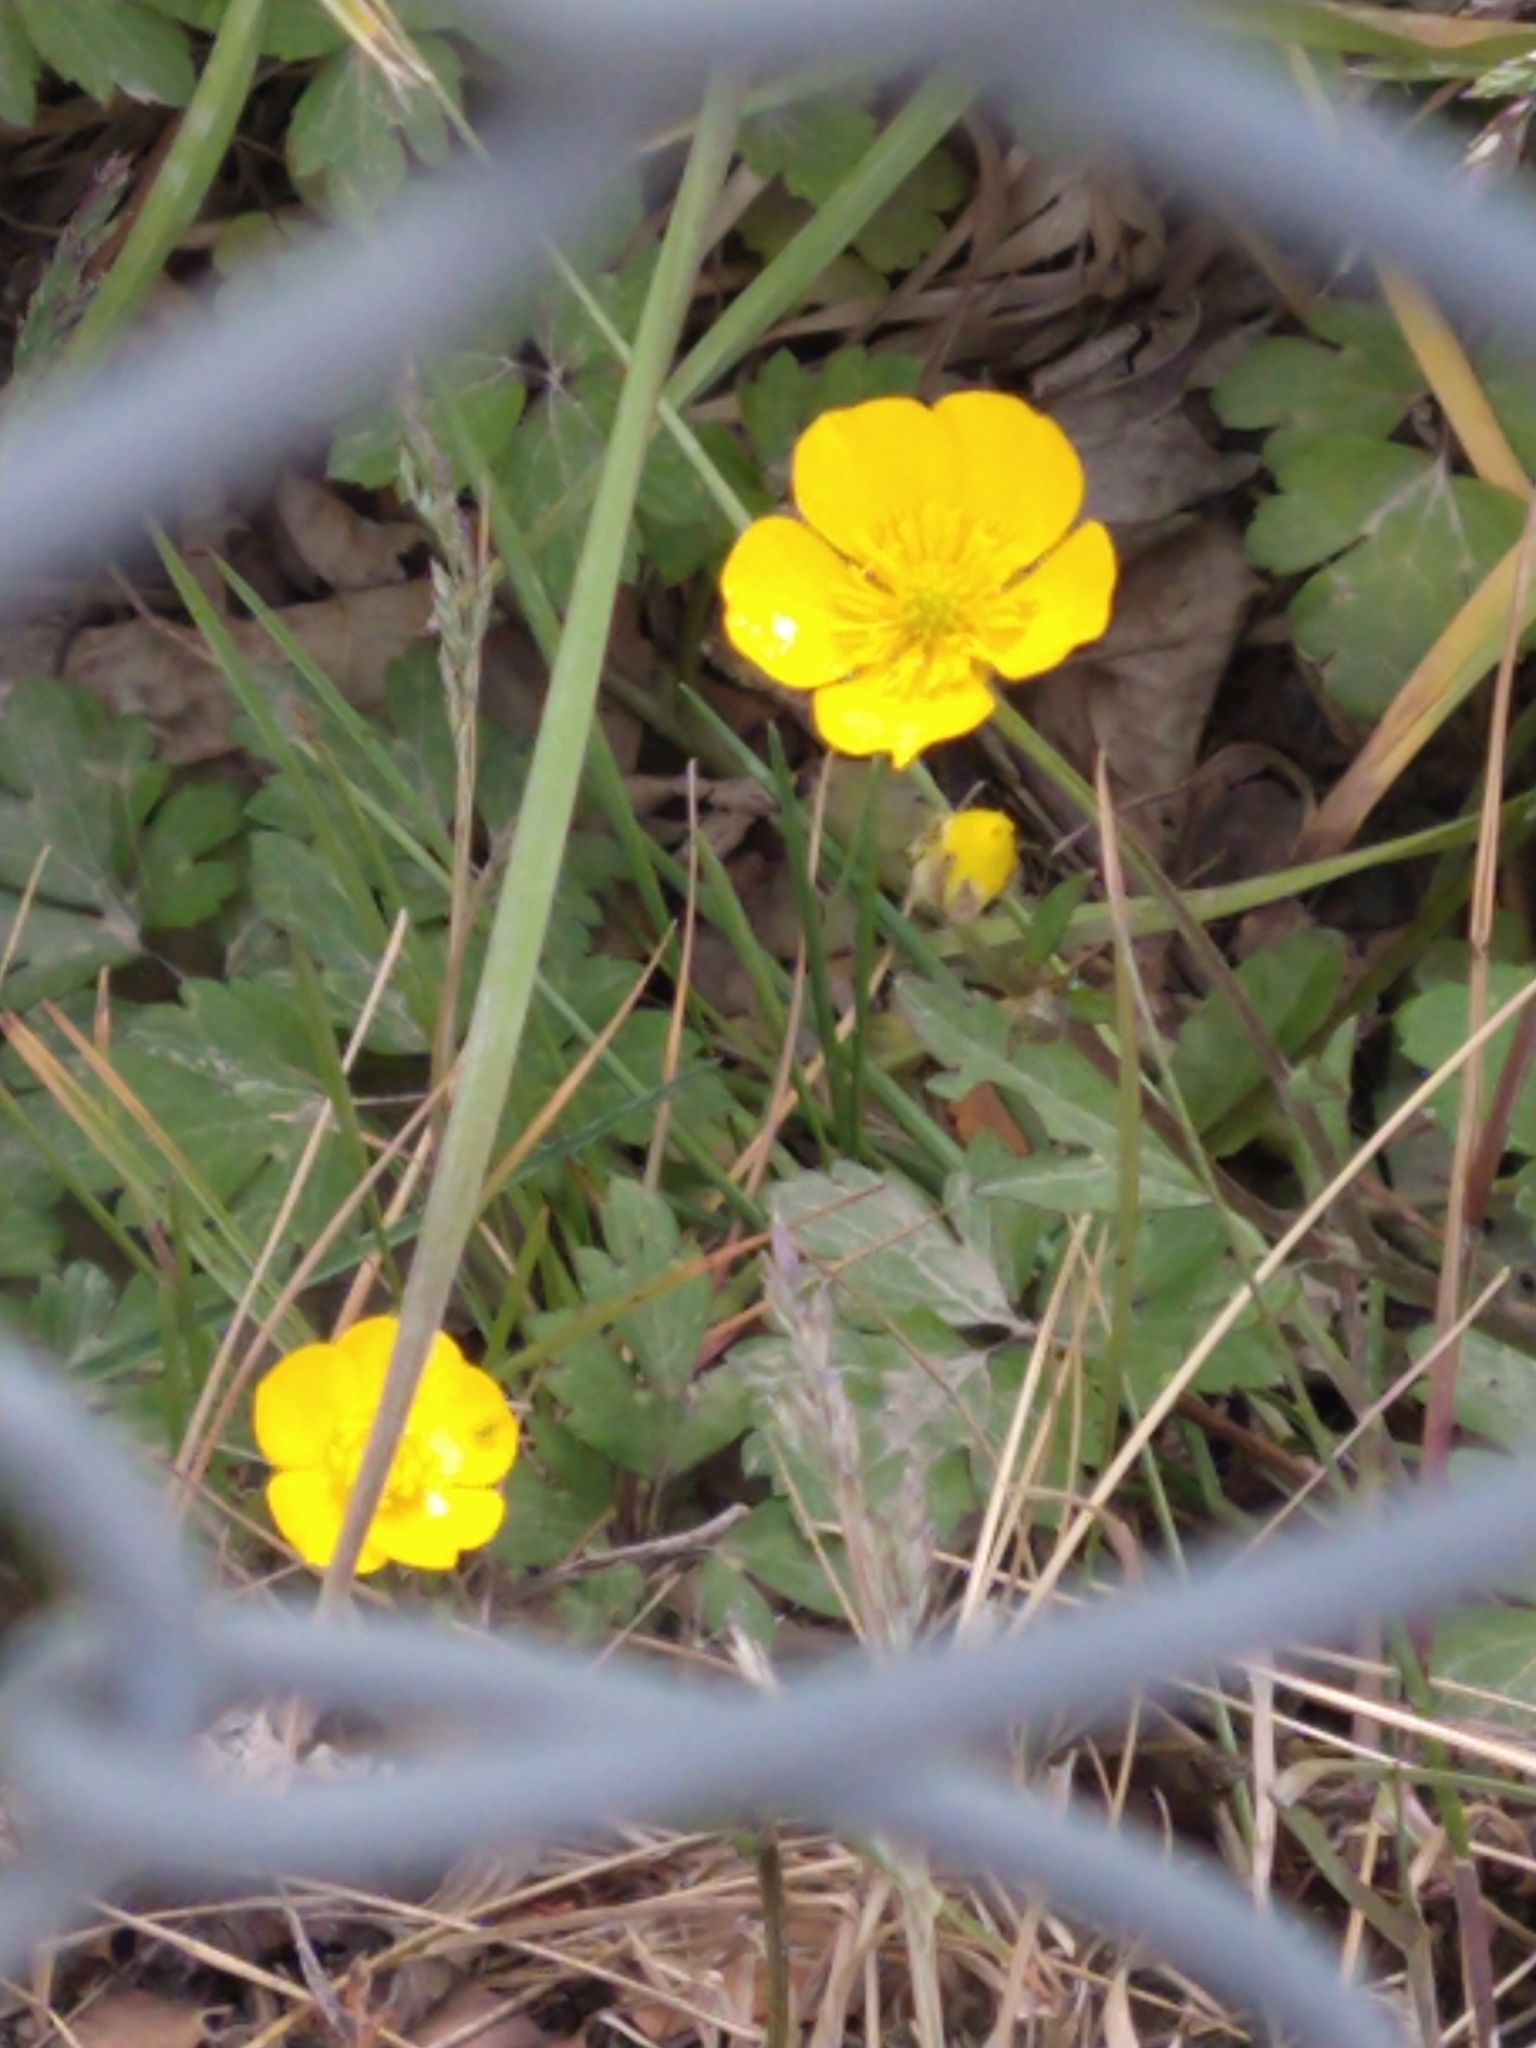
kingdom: Plantae
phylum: Tracheophyta
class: Magnoliopsida
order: Ranunculales
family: Ranunculaceae
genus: Ranunculus
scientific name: Ranunculus repens
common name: Creeping buttercup
